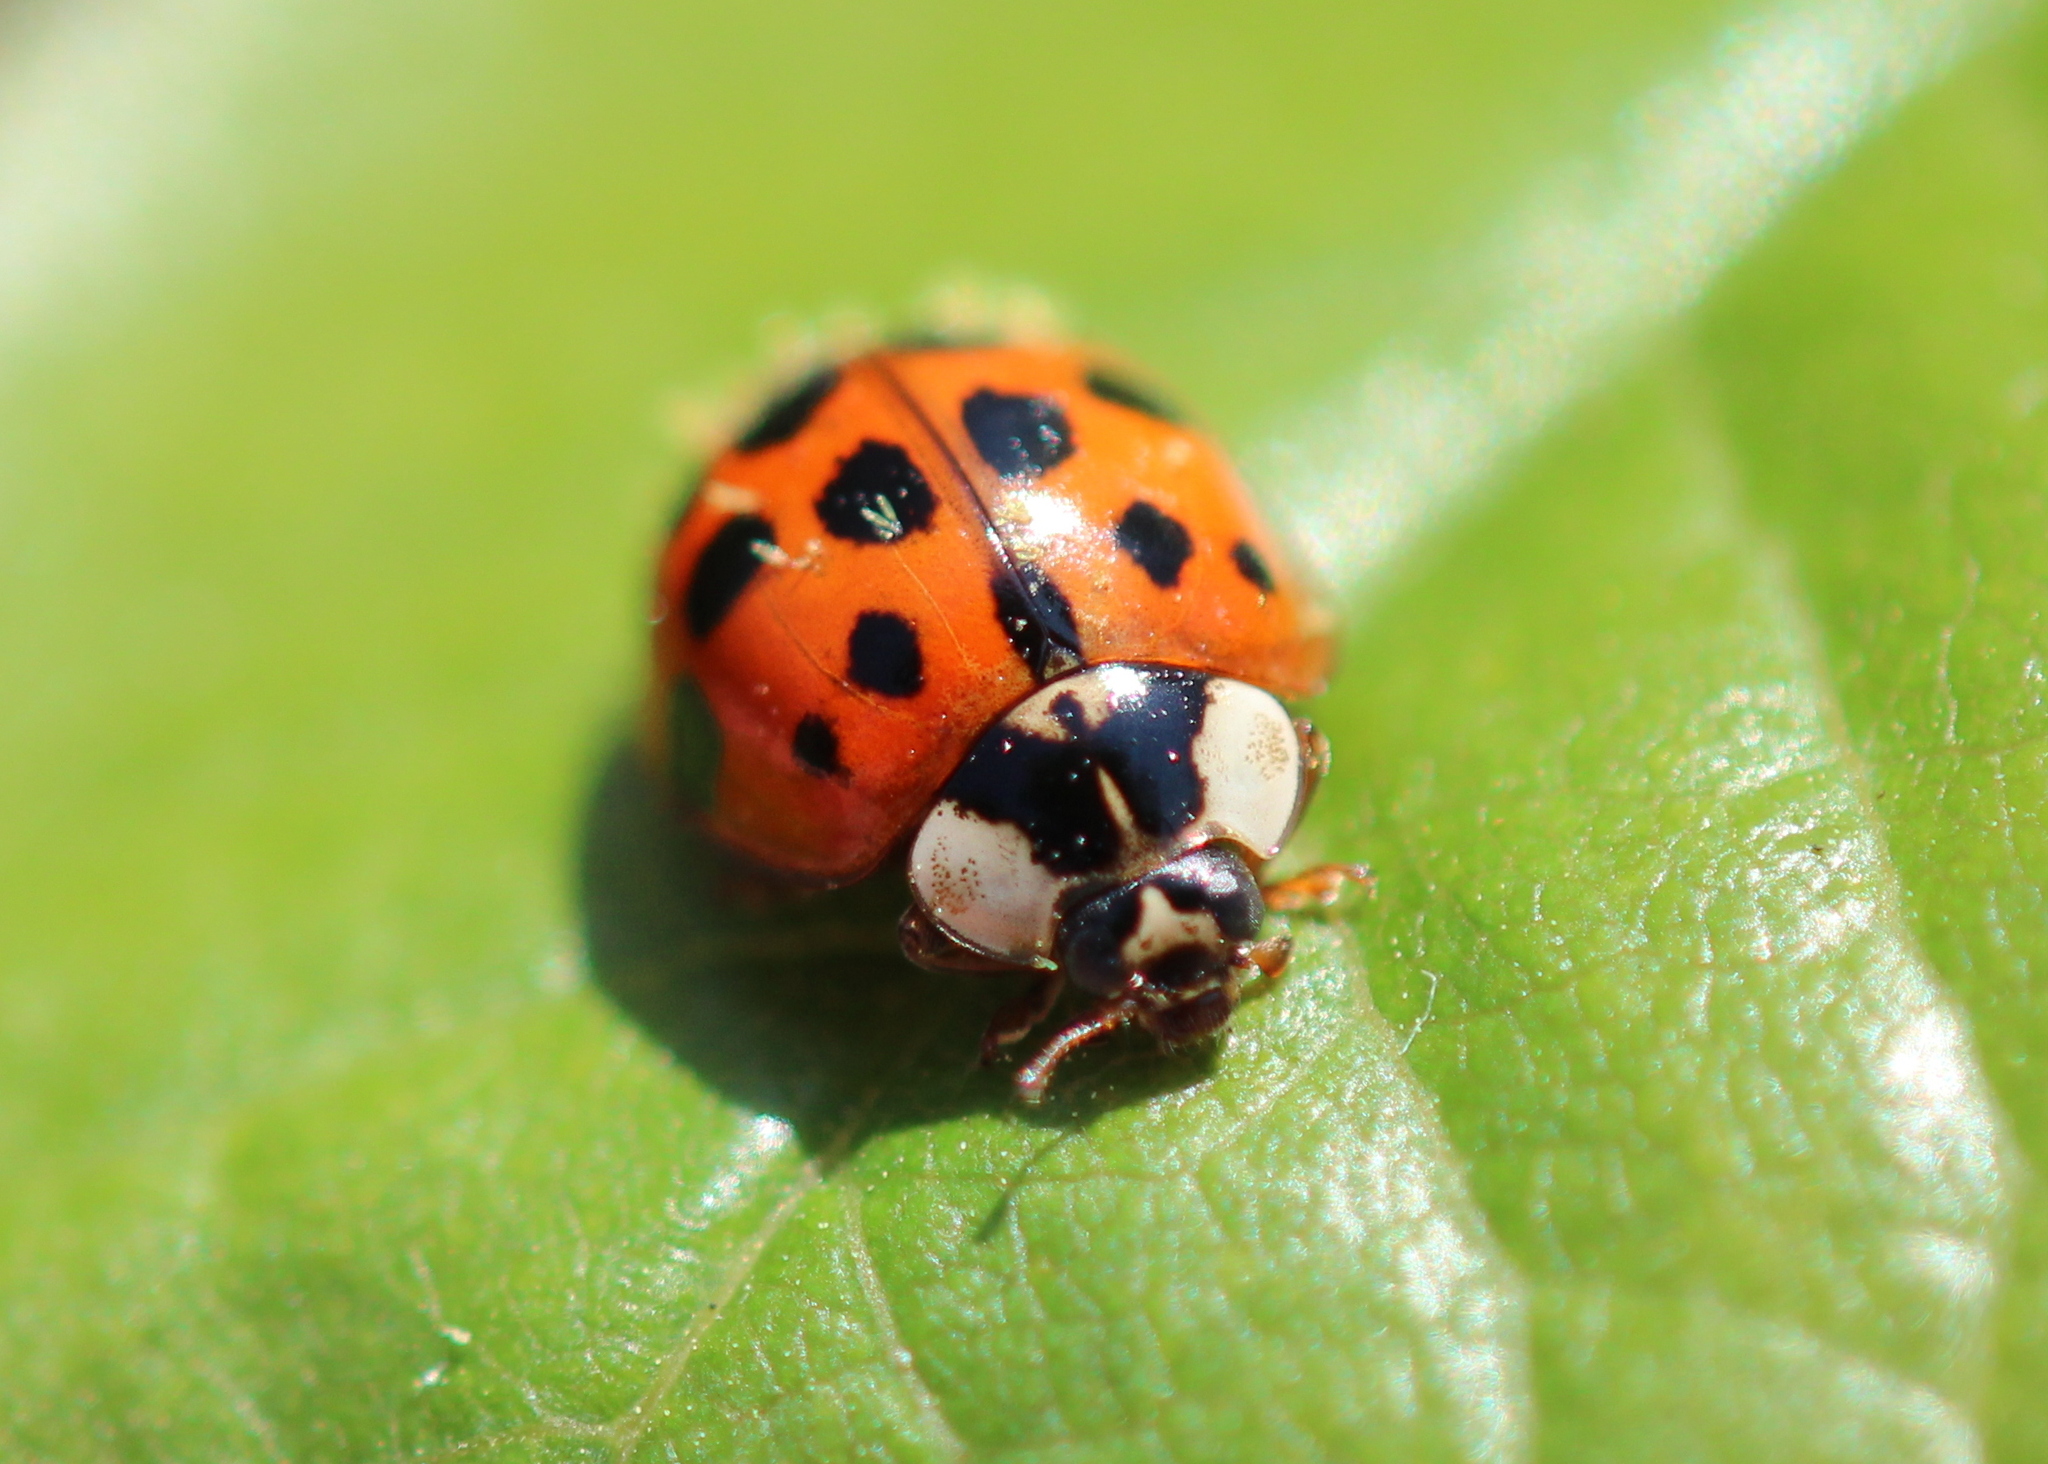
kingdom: Animalia
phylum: Arthropoda
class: Insecta
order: Coleoptera
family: Coccinellidae
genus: Harmonia
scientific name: Harmonia axyridis
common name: Harlequin ladybird
